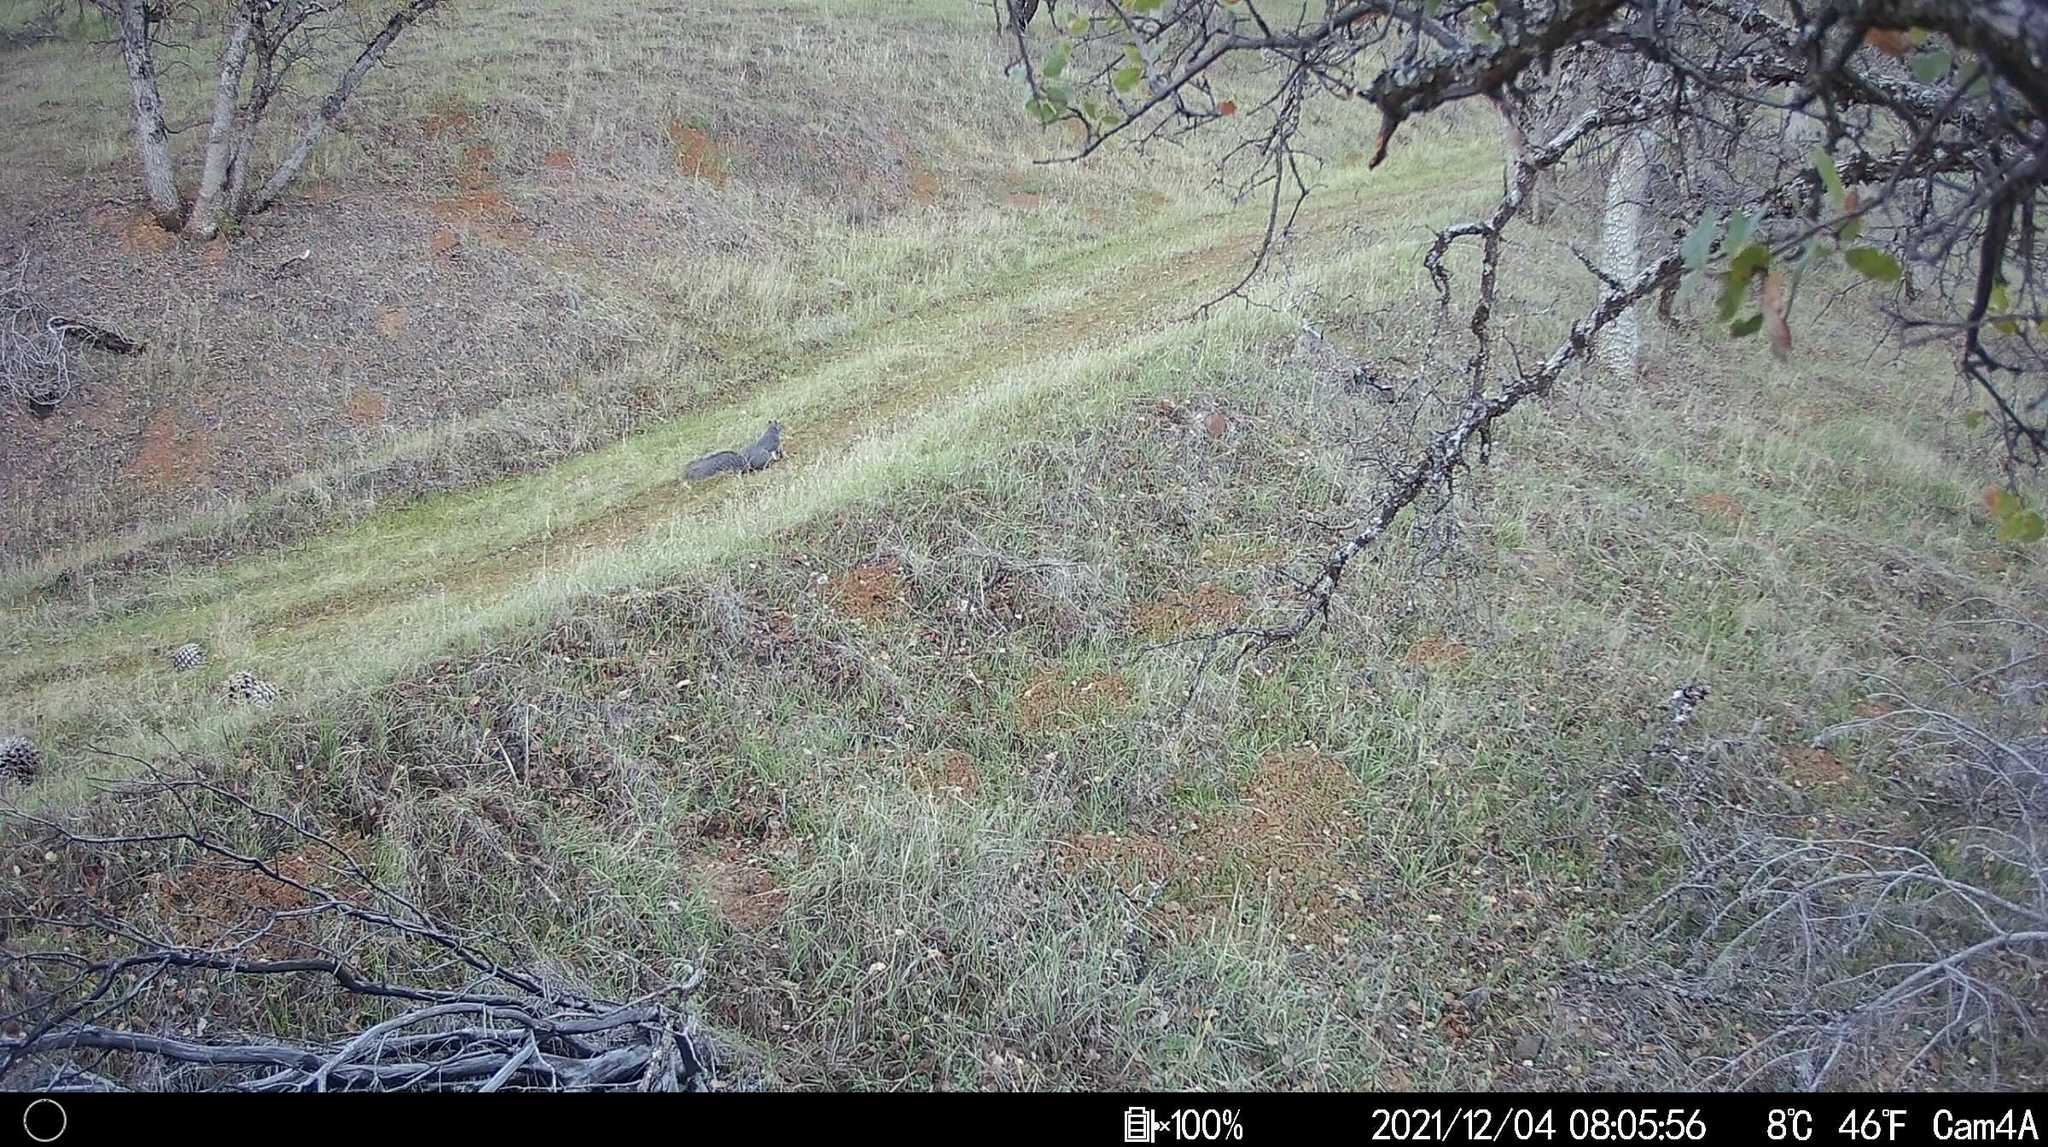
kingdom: Animalia
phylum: Chordata
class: Mammalia
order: Rodentia
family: Sciuridae
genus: Sciurus
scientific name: Sciurus griseus
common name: Western gray squirrel
